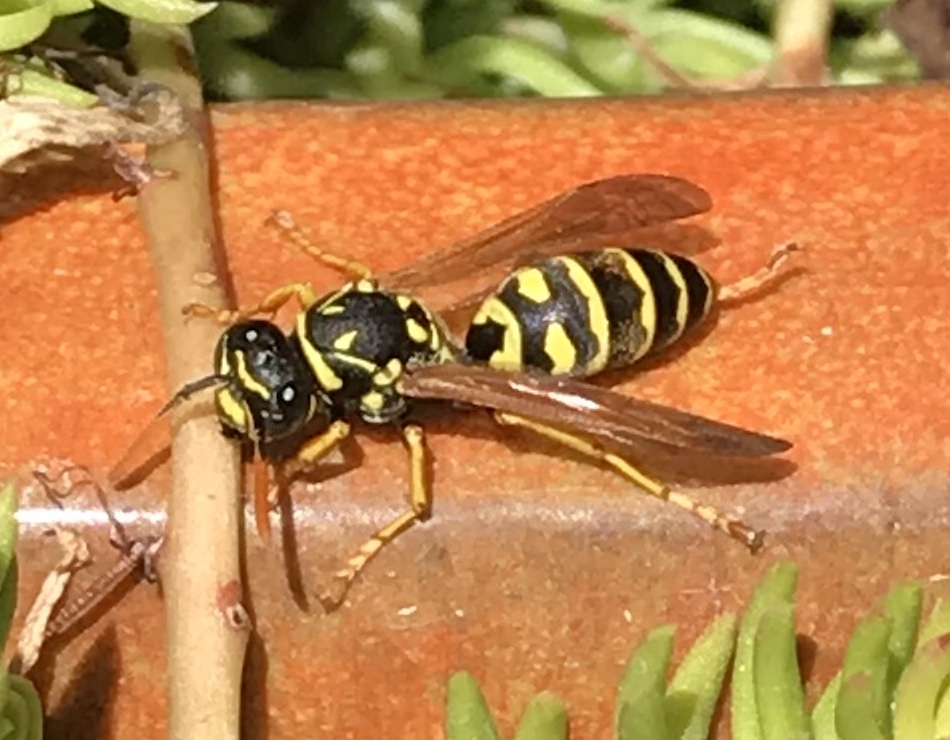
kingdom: Animalia
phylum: Arthropoda
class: Insecta
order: Hymenoptera
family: Eumenidae
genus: Polistes
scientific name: Polistes dominula
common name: Paper wasp
